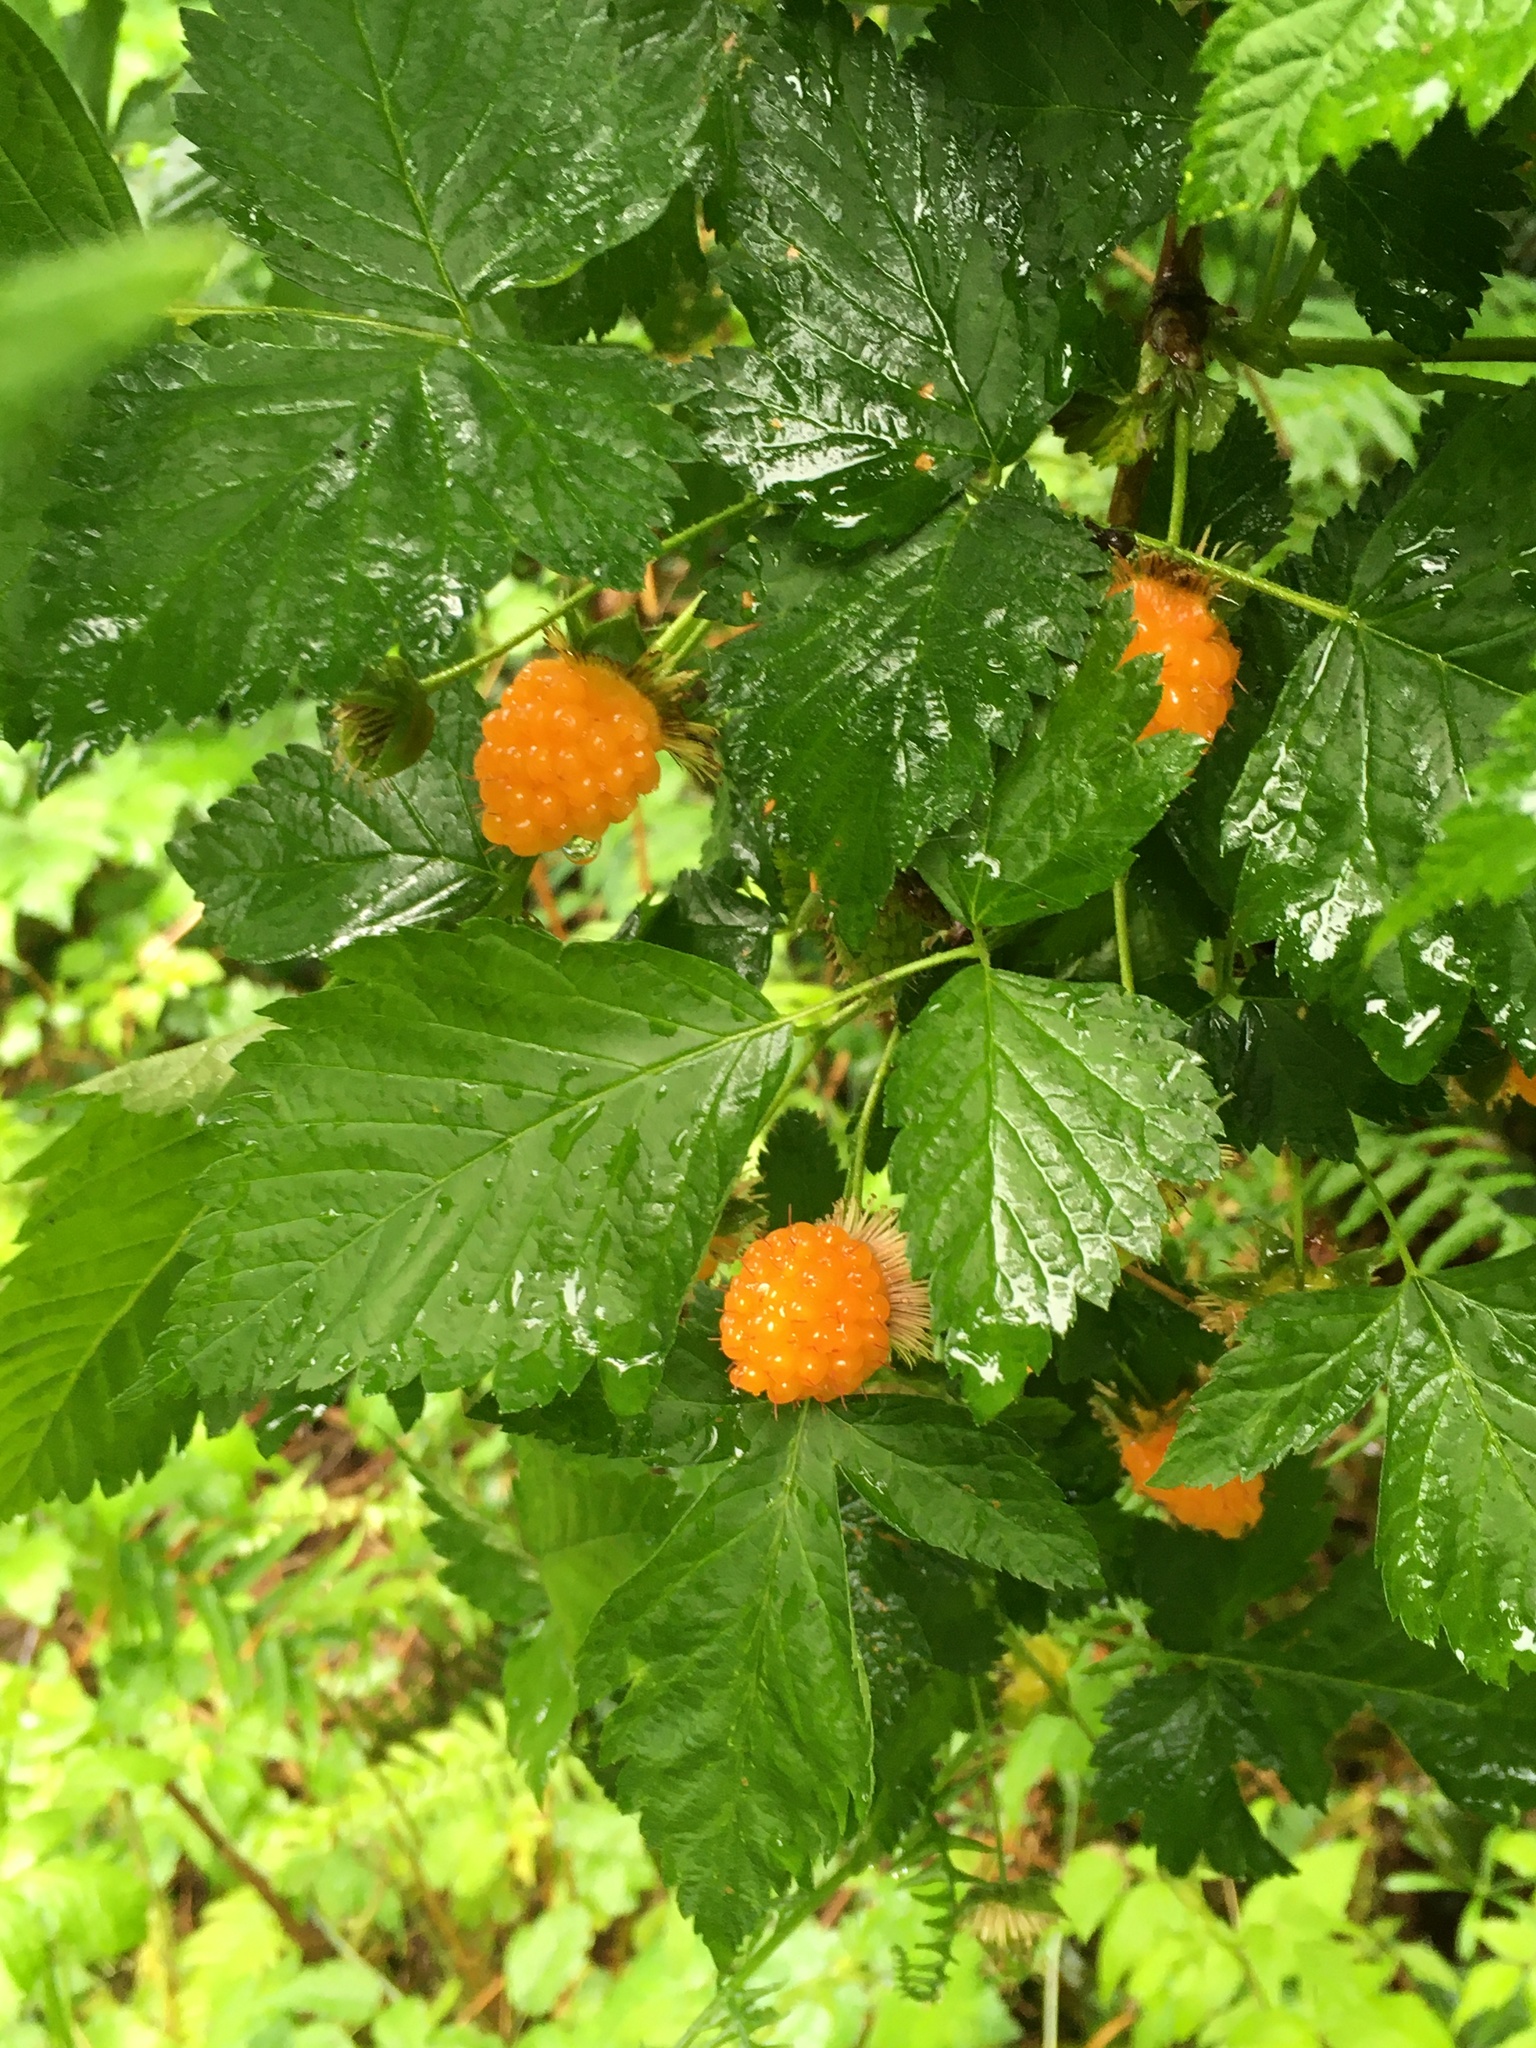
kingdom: Plantae
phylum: Tracheophyta
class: Magnoliopsida
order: Rosales
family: Rosaceae
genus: Rubus
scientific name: Rubus spectabilis
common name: Salmonberry
